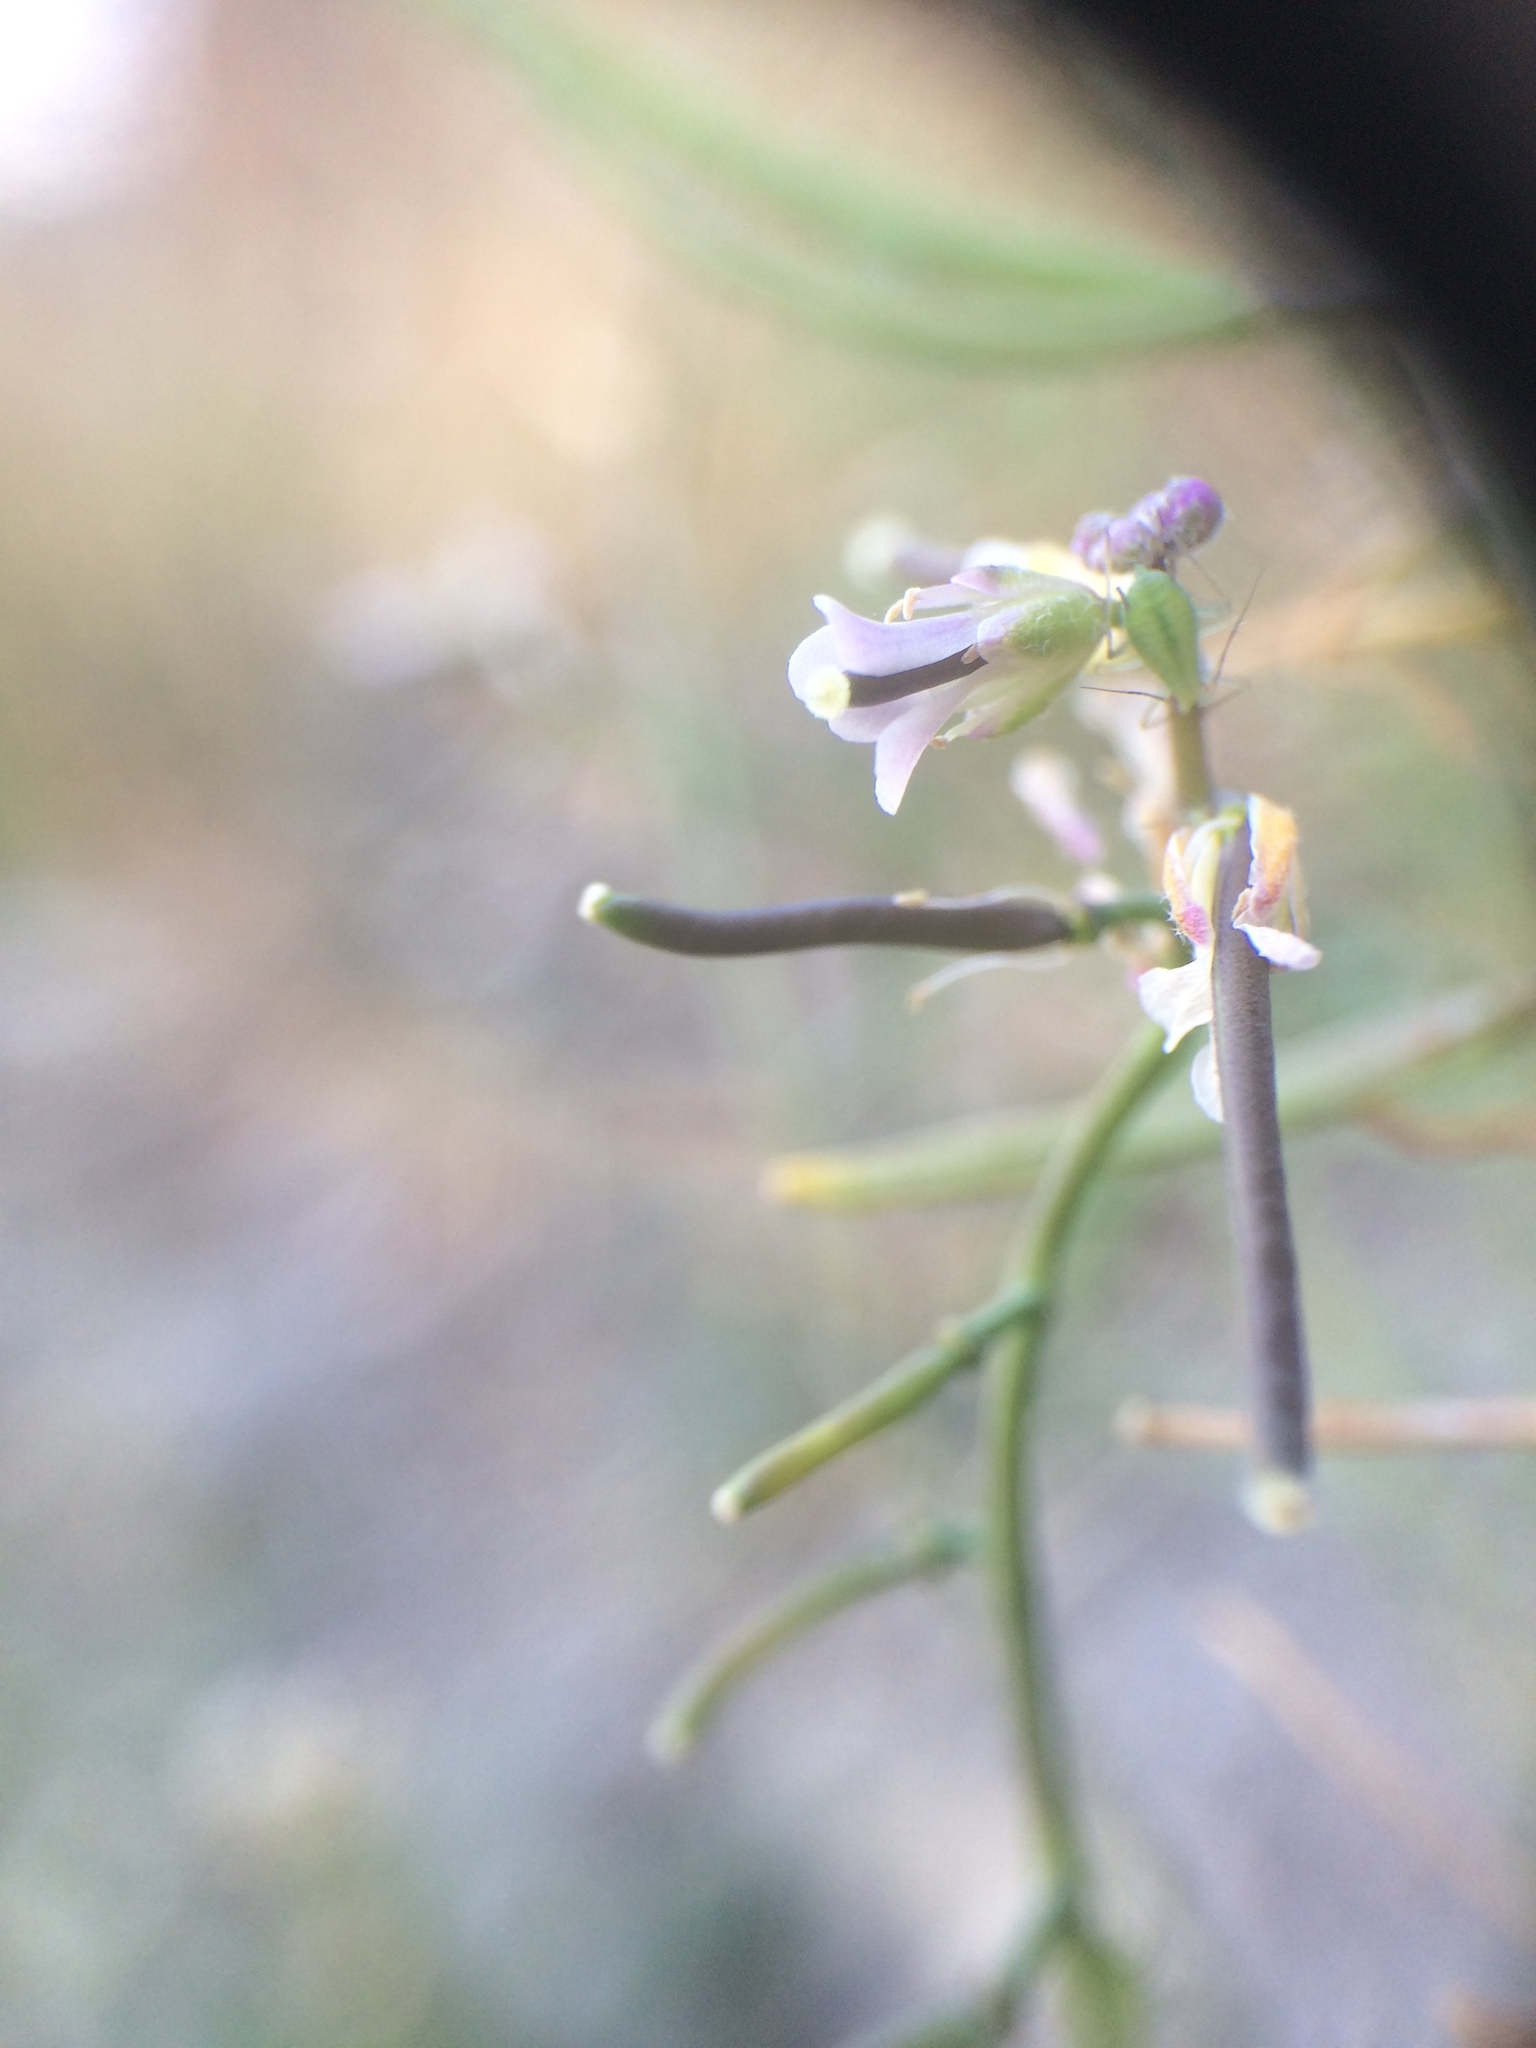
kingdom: Plantae
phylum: Tracheophyta
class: Magnoliopsida
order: Brassicales
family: Brassicaceae
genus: Boechera
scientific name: Boechera quebecensis
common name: Quebec rockcress
